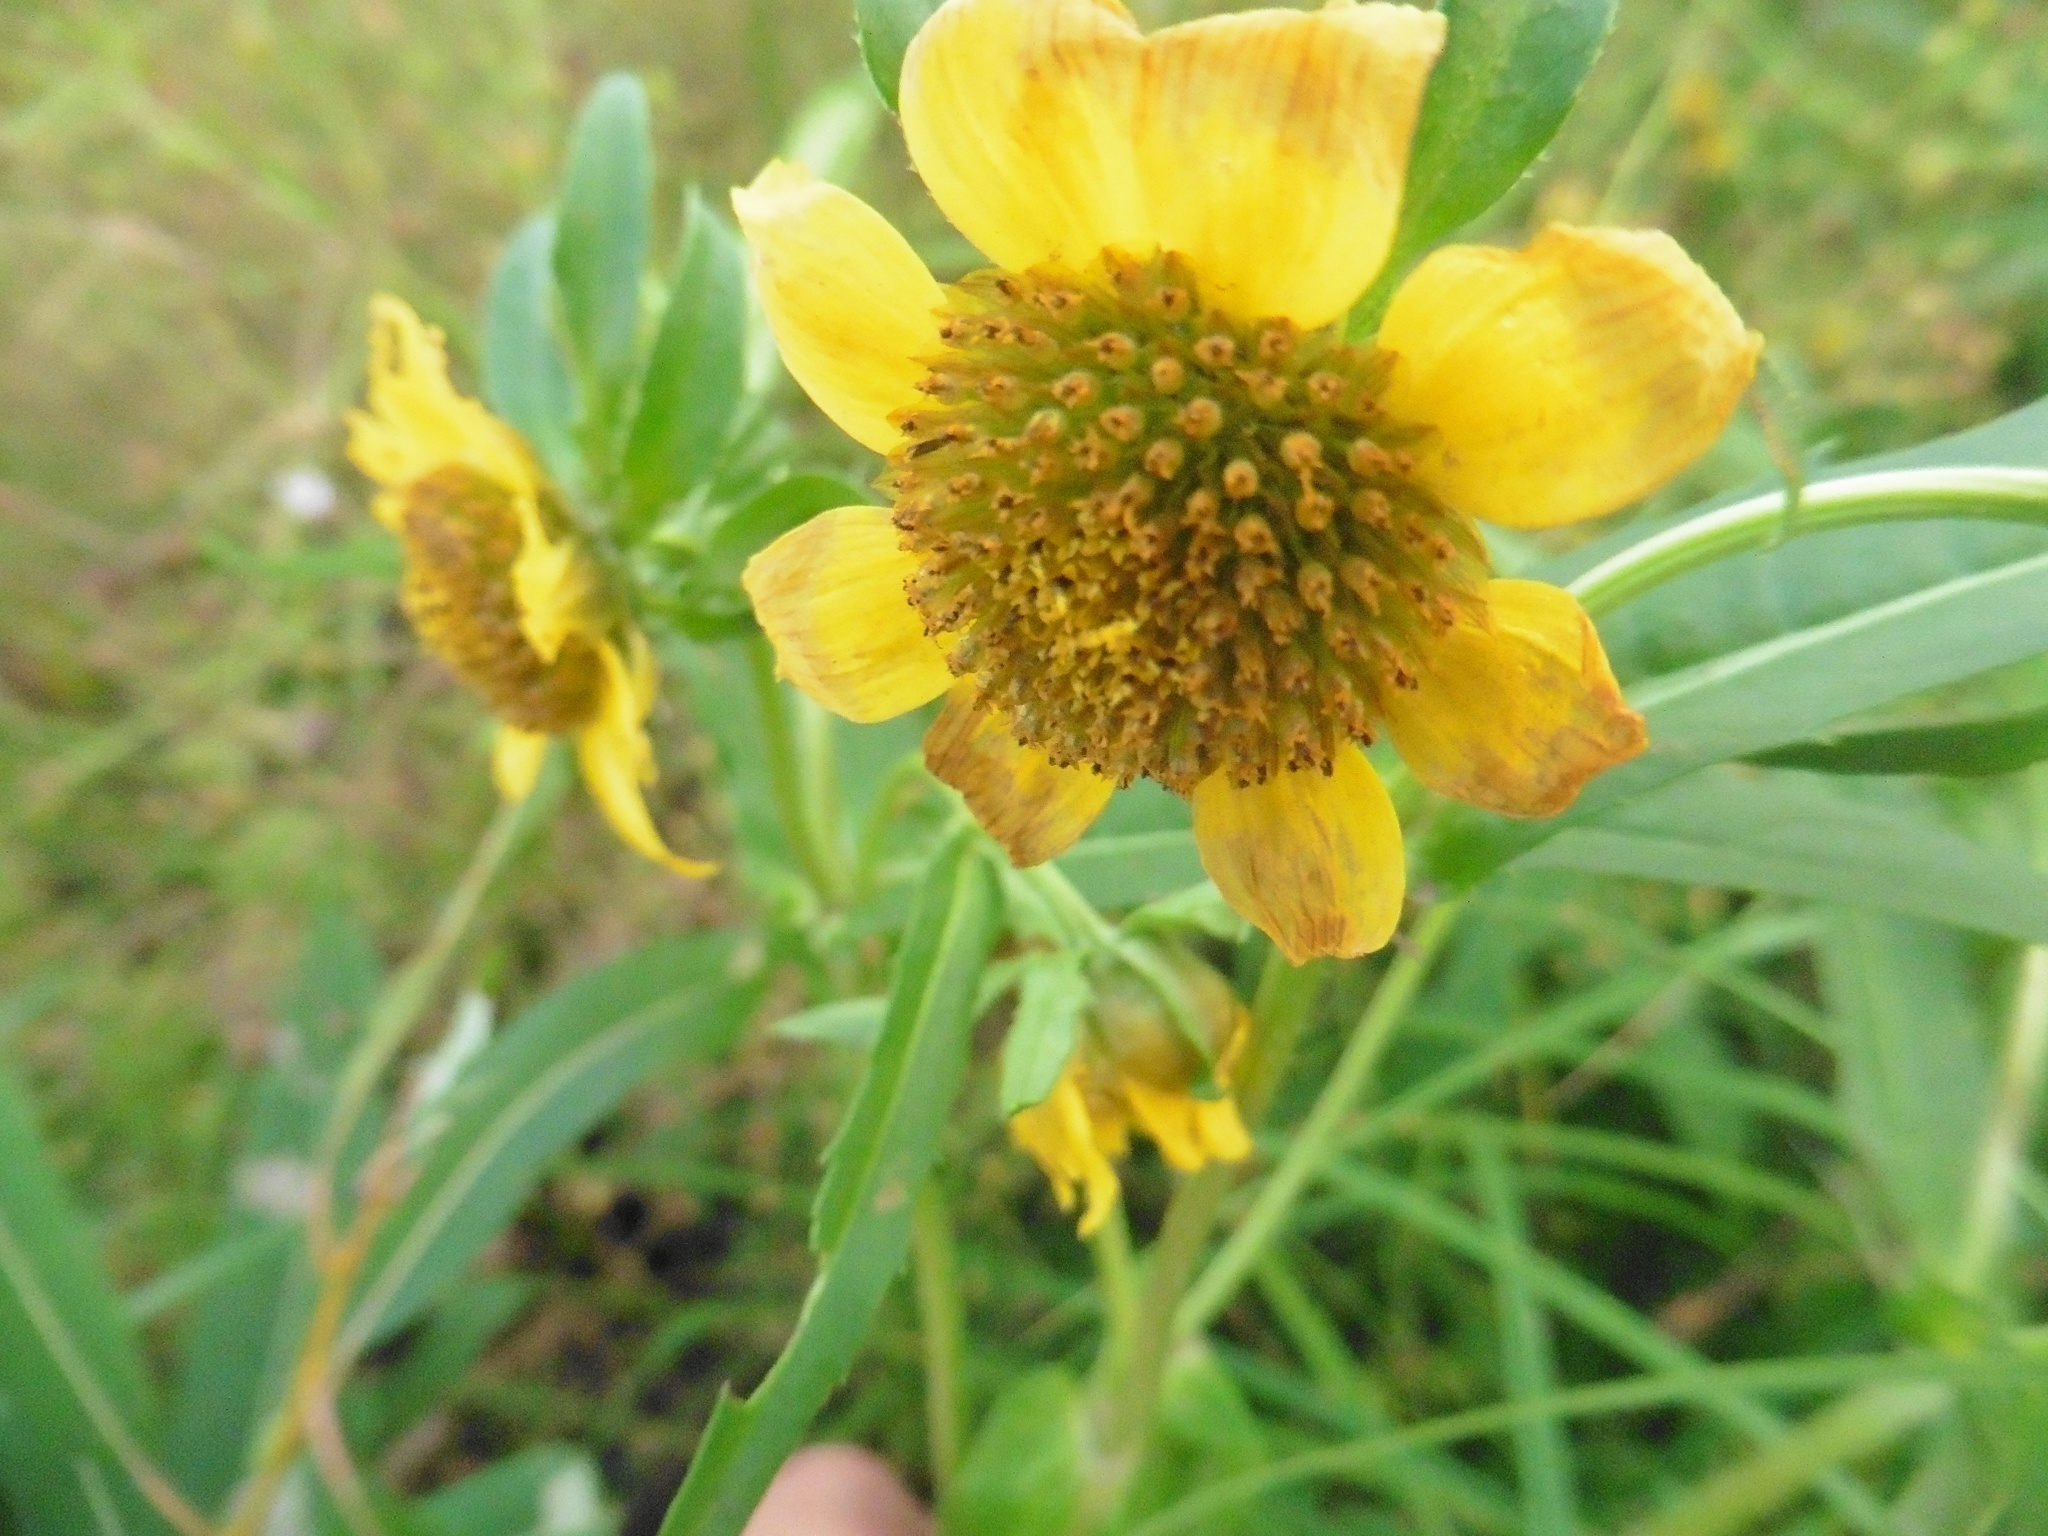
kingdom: Plantae
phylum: Tracheophyta
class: Magnoliopsida
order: Asterales
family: Asteraceae
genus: Bidens
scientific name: Bidens cernua
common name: Nodding bur-marigold
